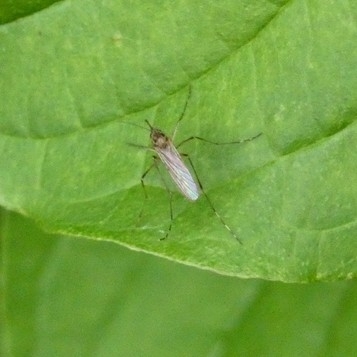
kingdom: Animalia
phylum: Arthropoda
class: Insecta
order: Diptera
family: Culicidae
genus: Aedes
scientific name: Aedes japonicus
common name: Asian bush mosquito
